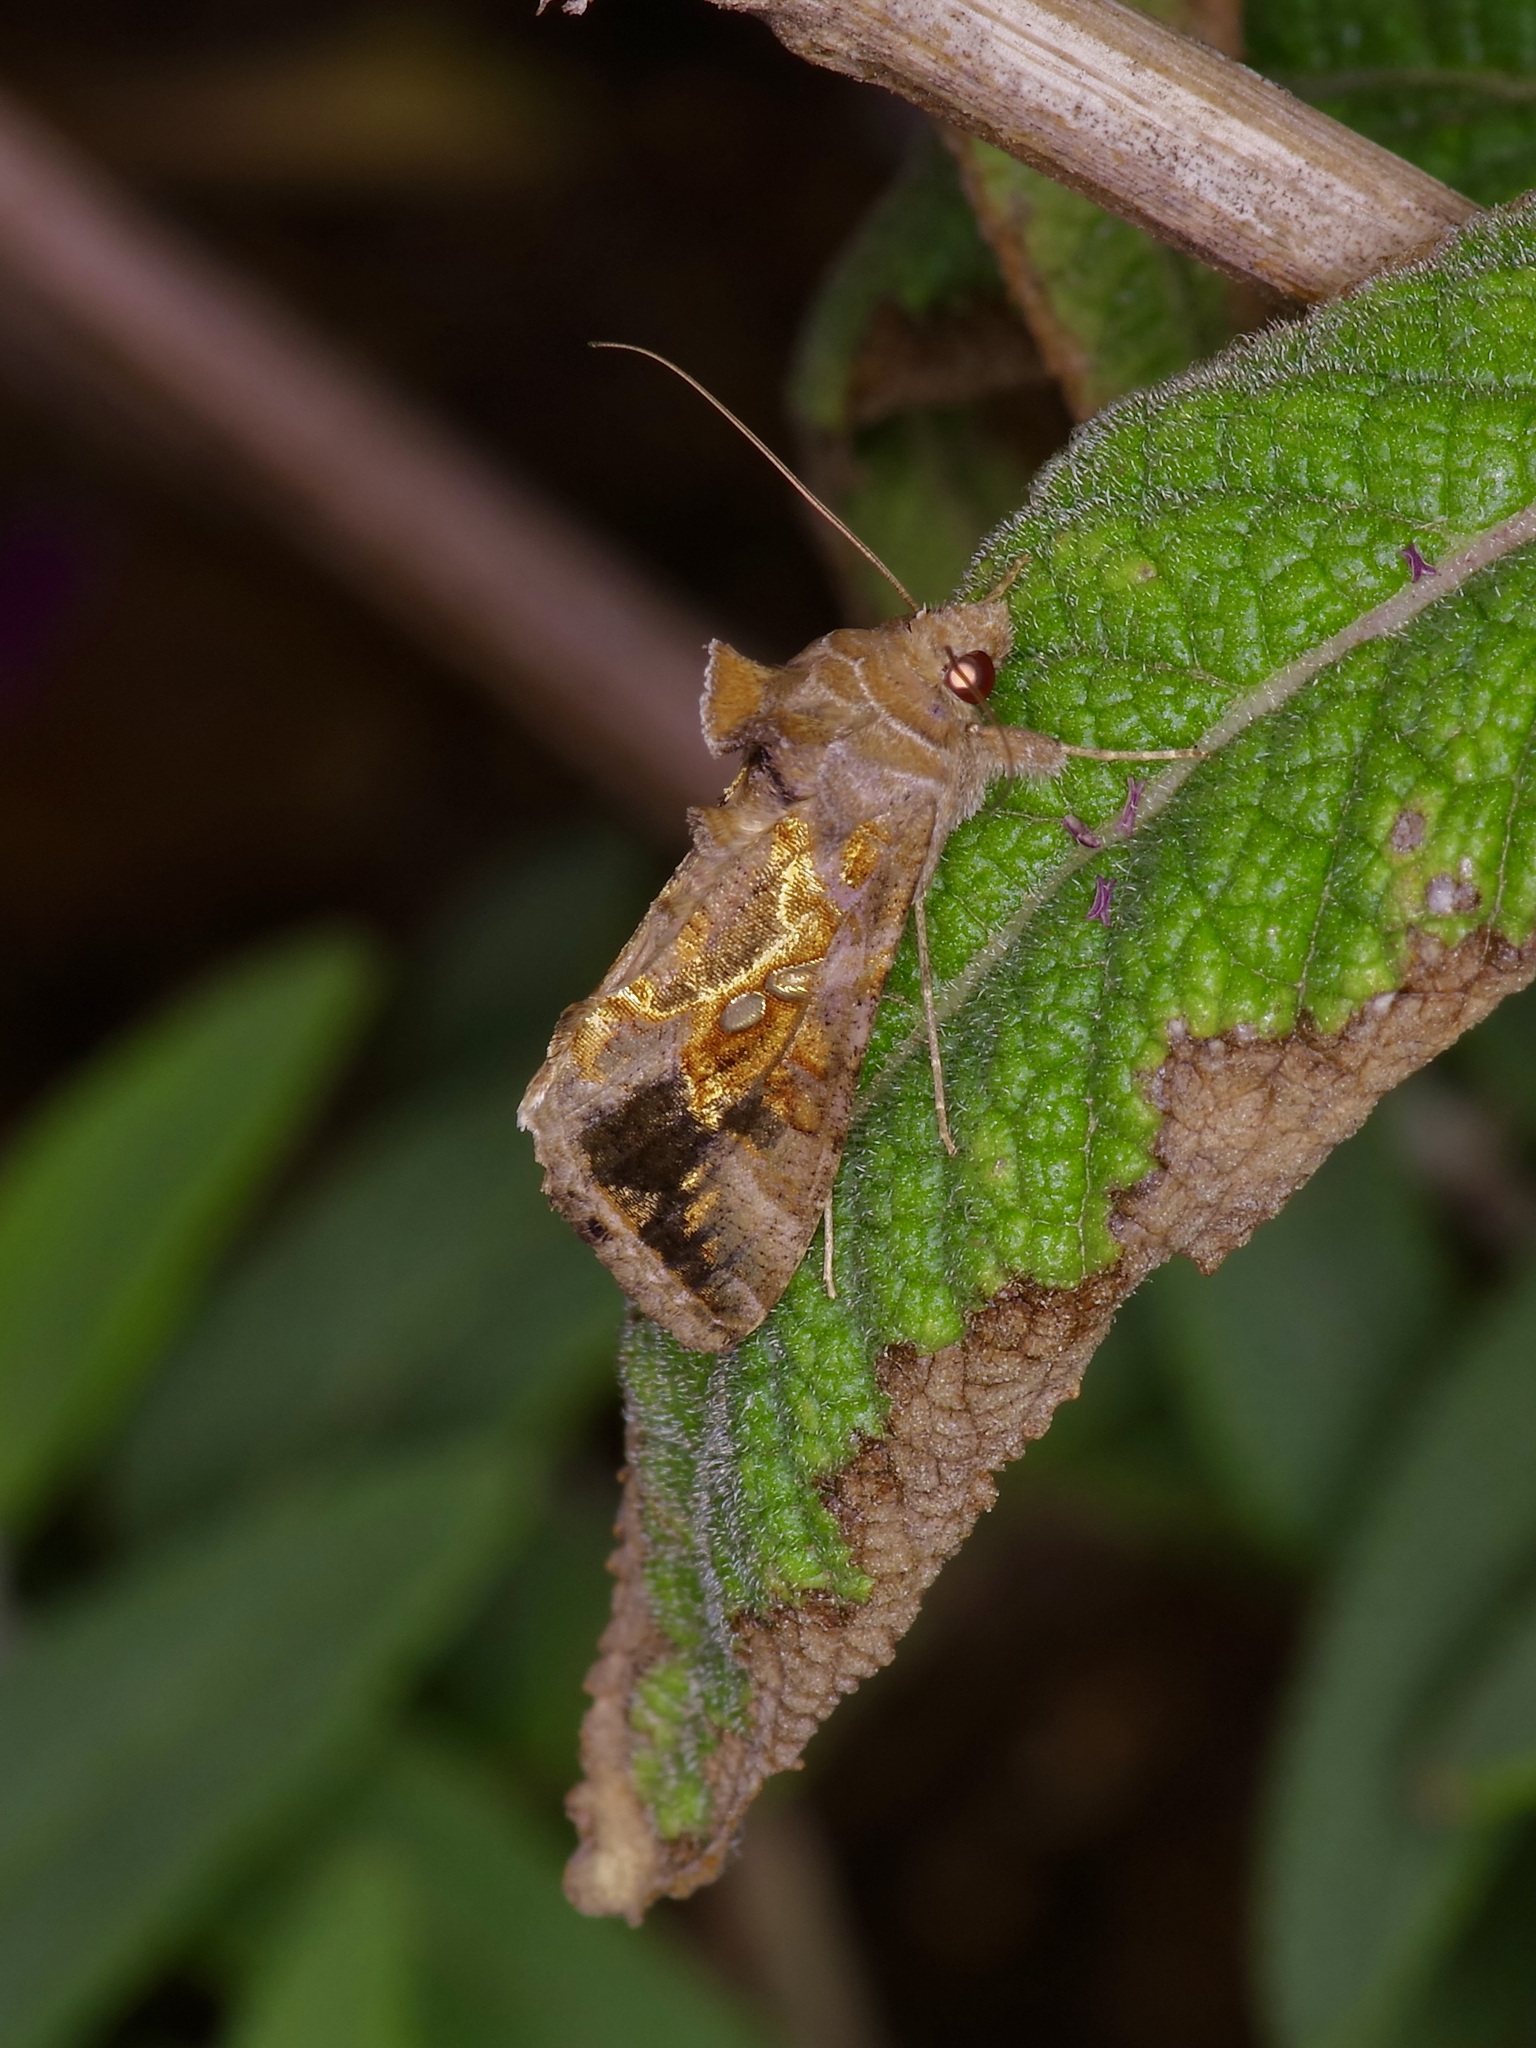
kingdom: Animalia
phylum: Arthropoda
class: Insecta
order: Lepidoptera
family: Noctuidae
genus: Chrysodeixis
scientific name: Chrysodeixis includens
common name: Cutworm moth
